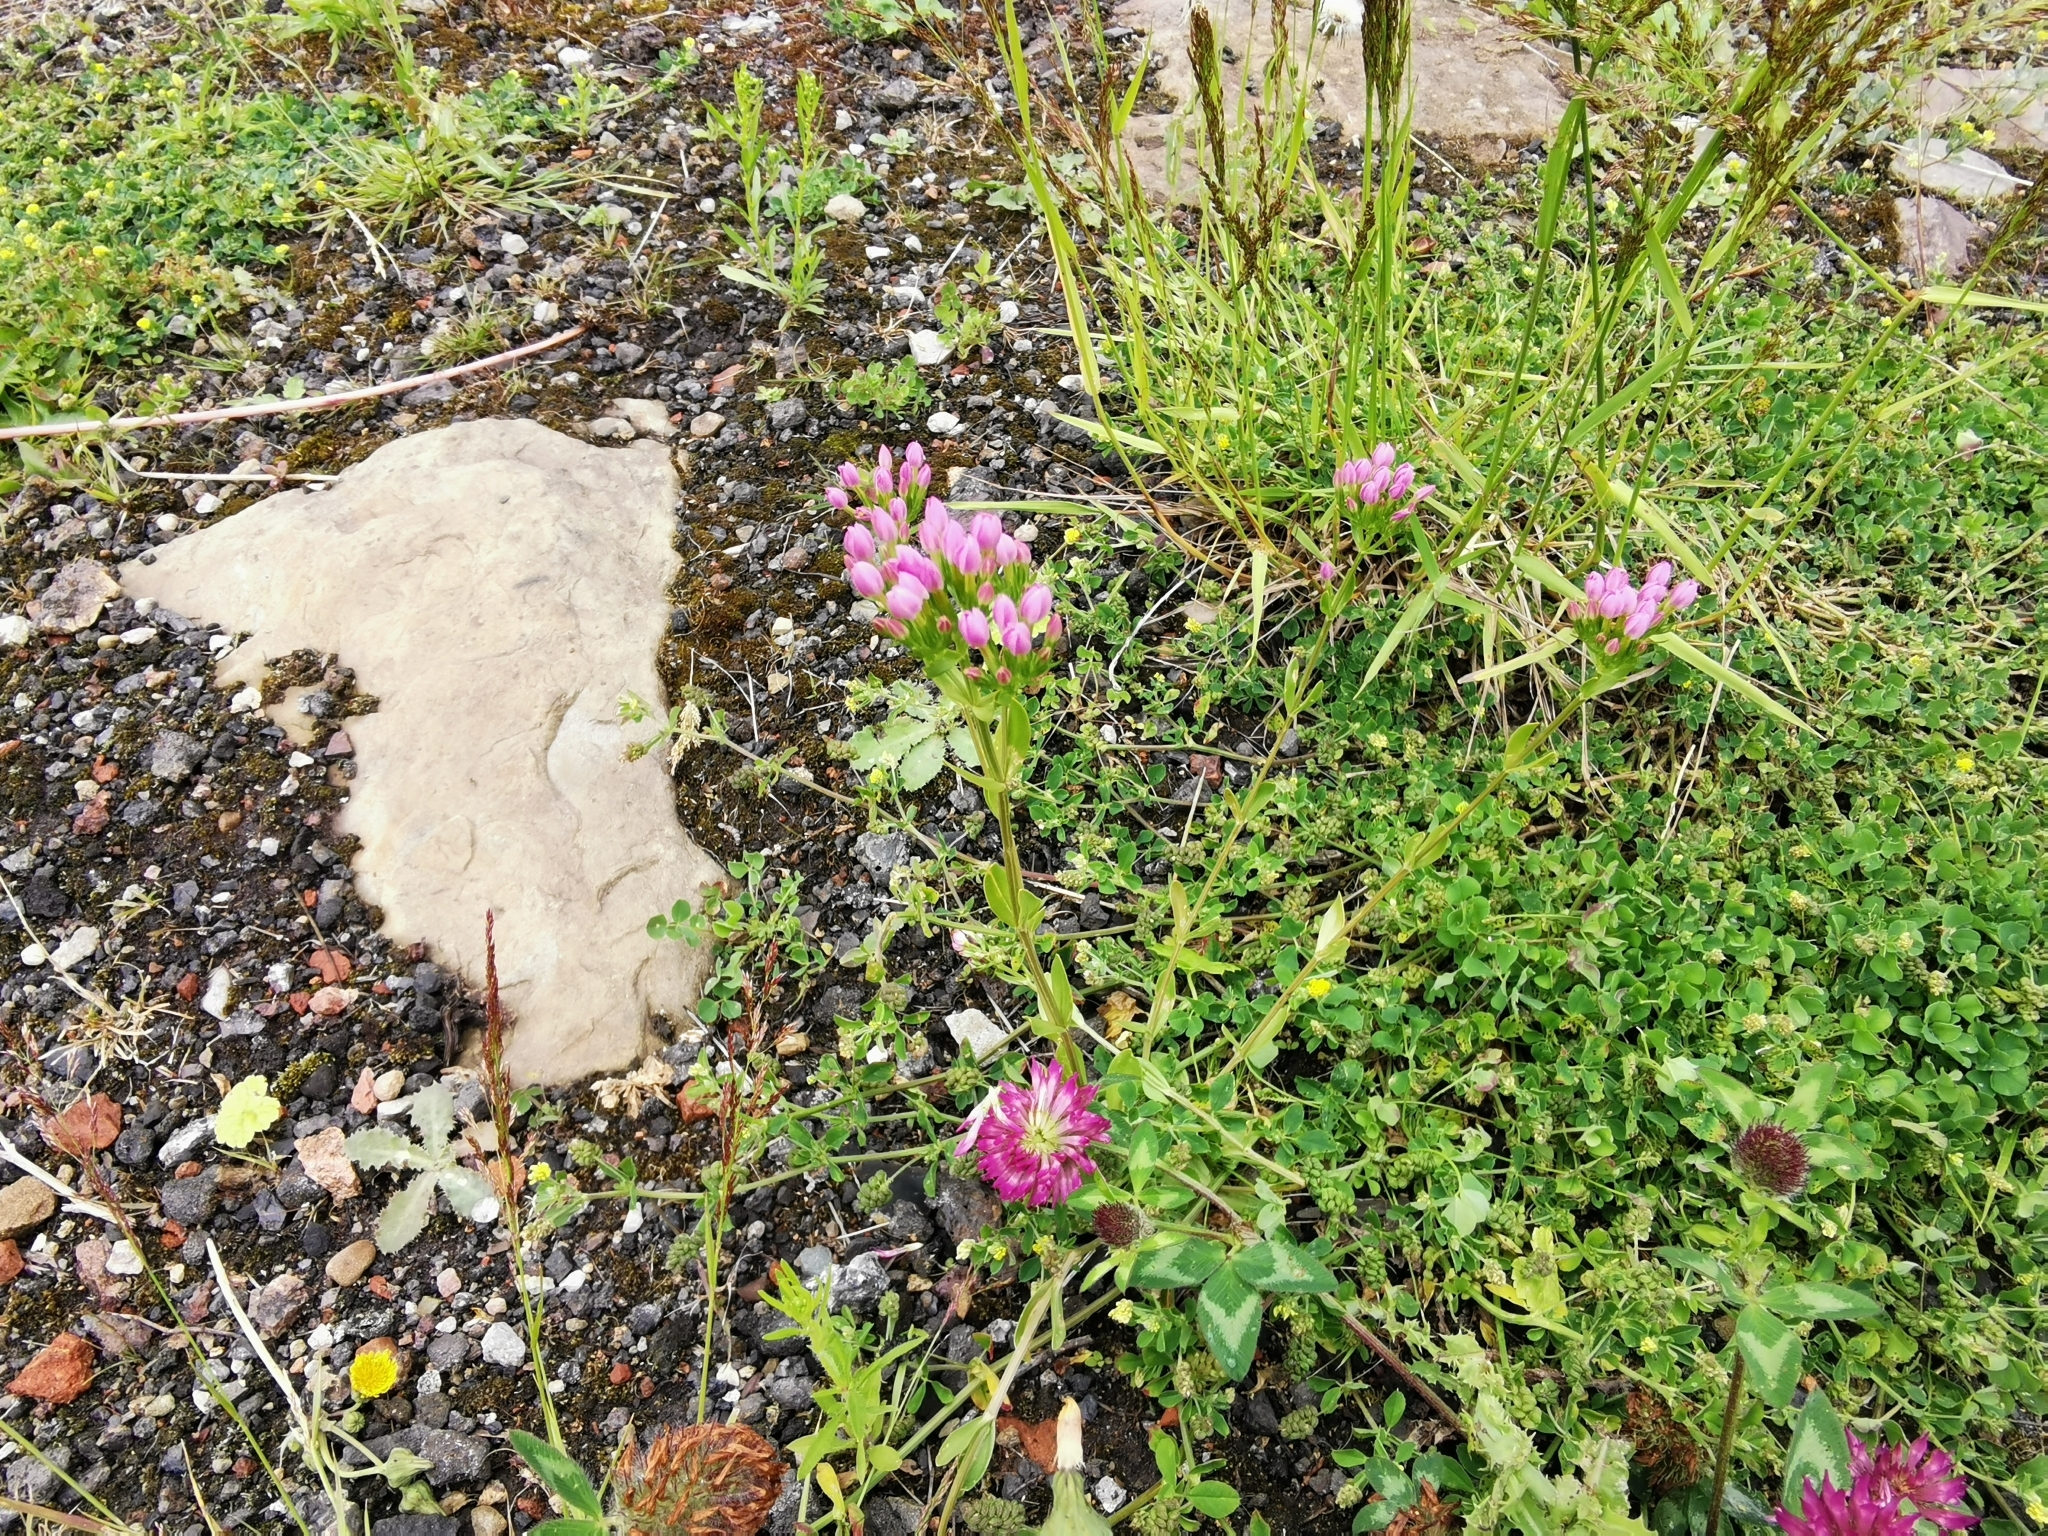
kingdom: Plantae
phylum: Tracheophyta
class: Magnoliopsida
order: Gentianales
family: Gentianaceae
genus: Centaurium
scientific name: Centaurium erythraea
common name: Common centaury
